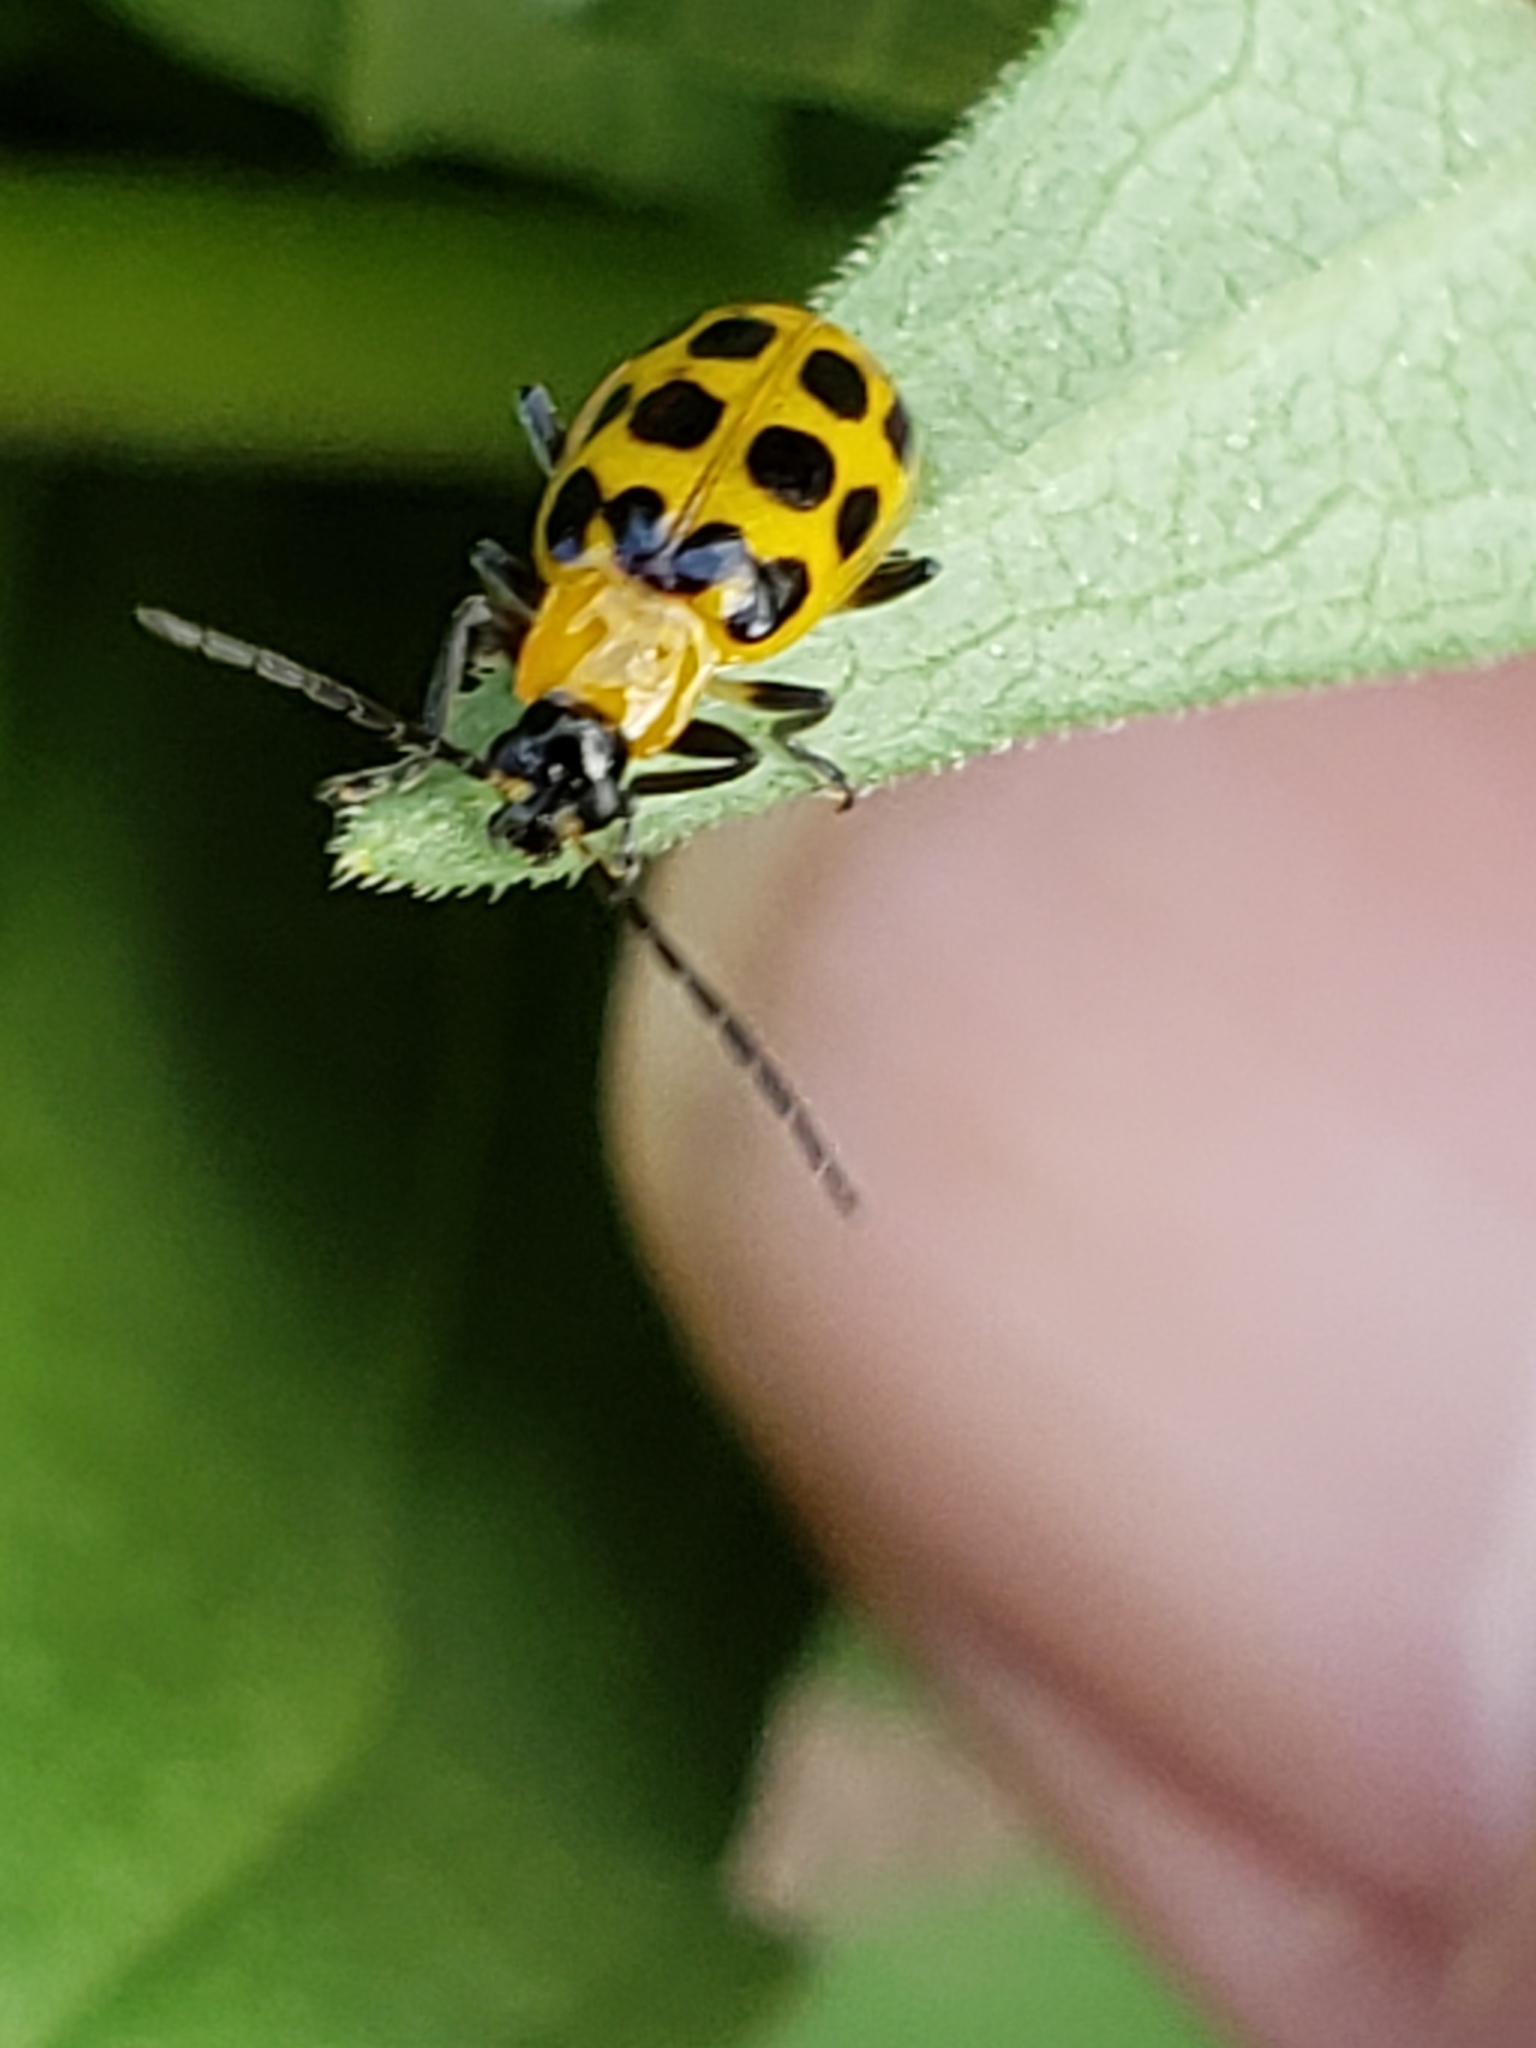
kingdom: Animalia
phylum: Arthropoda
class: Insecta
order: Coleoptera
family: Chrysomelidae
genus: Diabrotica
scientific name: Diabrotica undecimpunctata
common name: Spotted cucumber beetle
